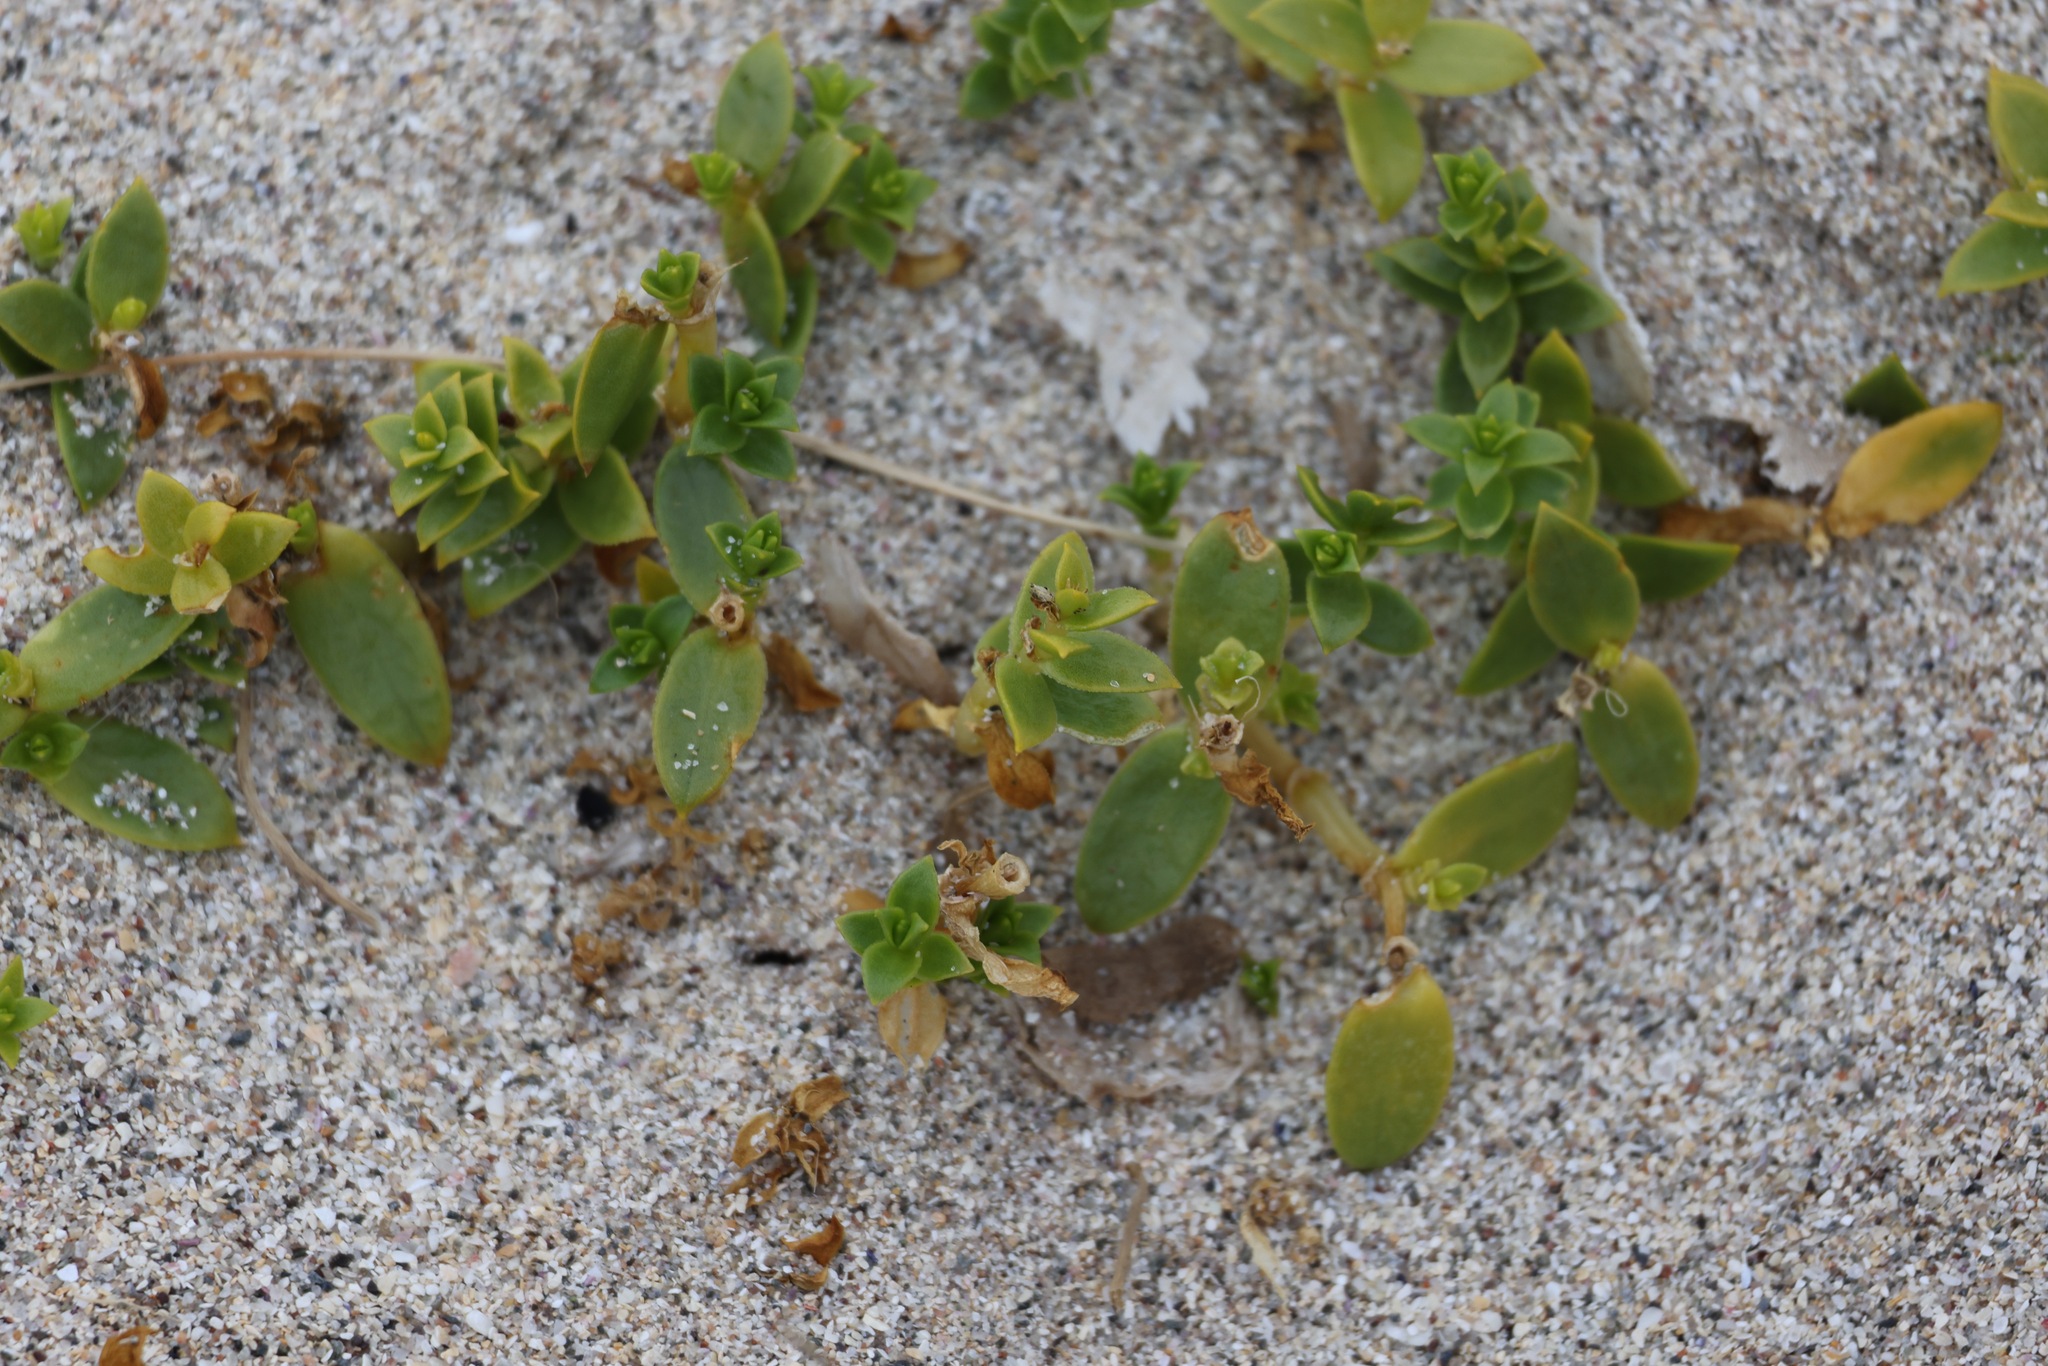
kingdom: Plantae
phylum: Tracheophyta
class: Magnoliopsida
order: Caryophyllales
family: Caryophyllaceae
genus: Honckenya
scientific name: Honckenya peploides
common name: Sea sandwort
